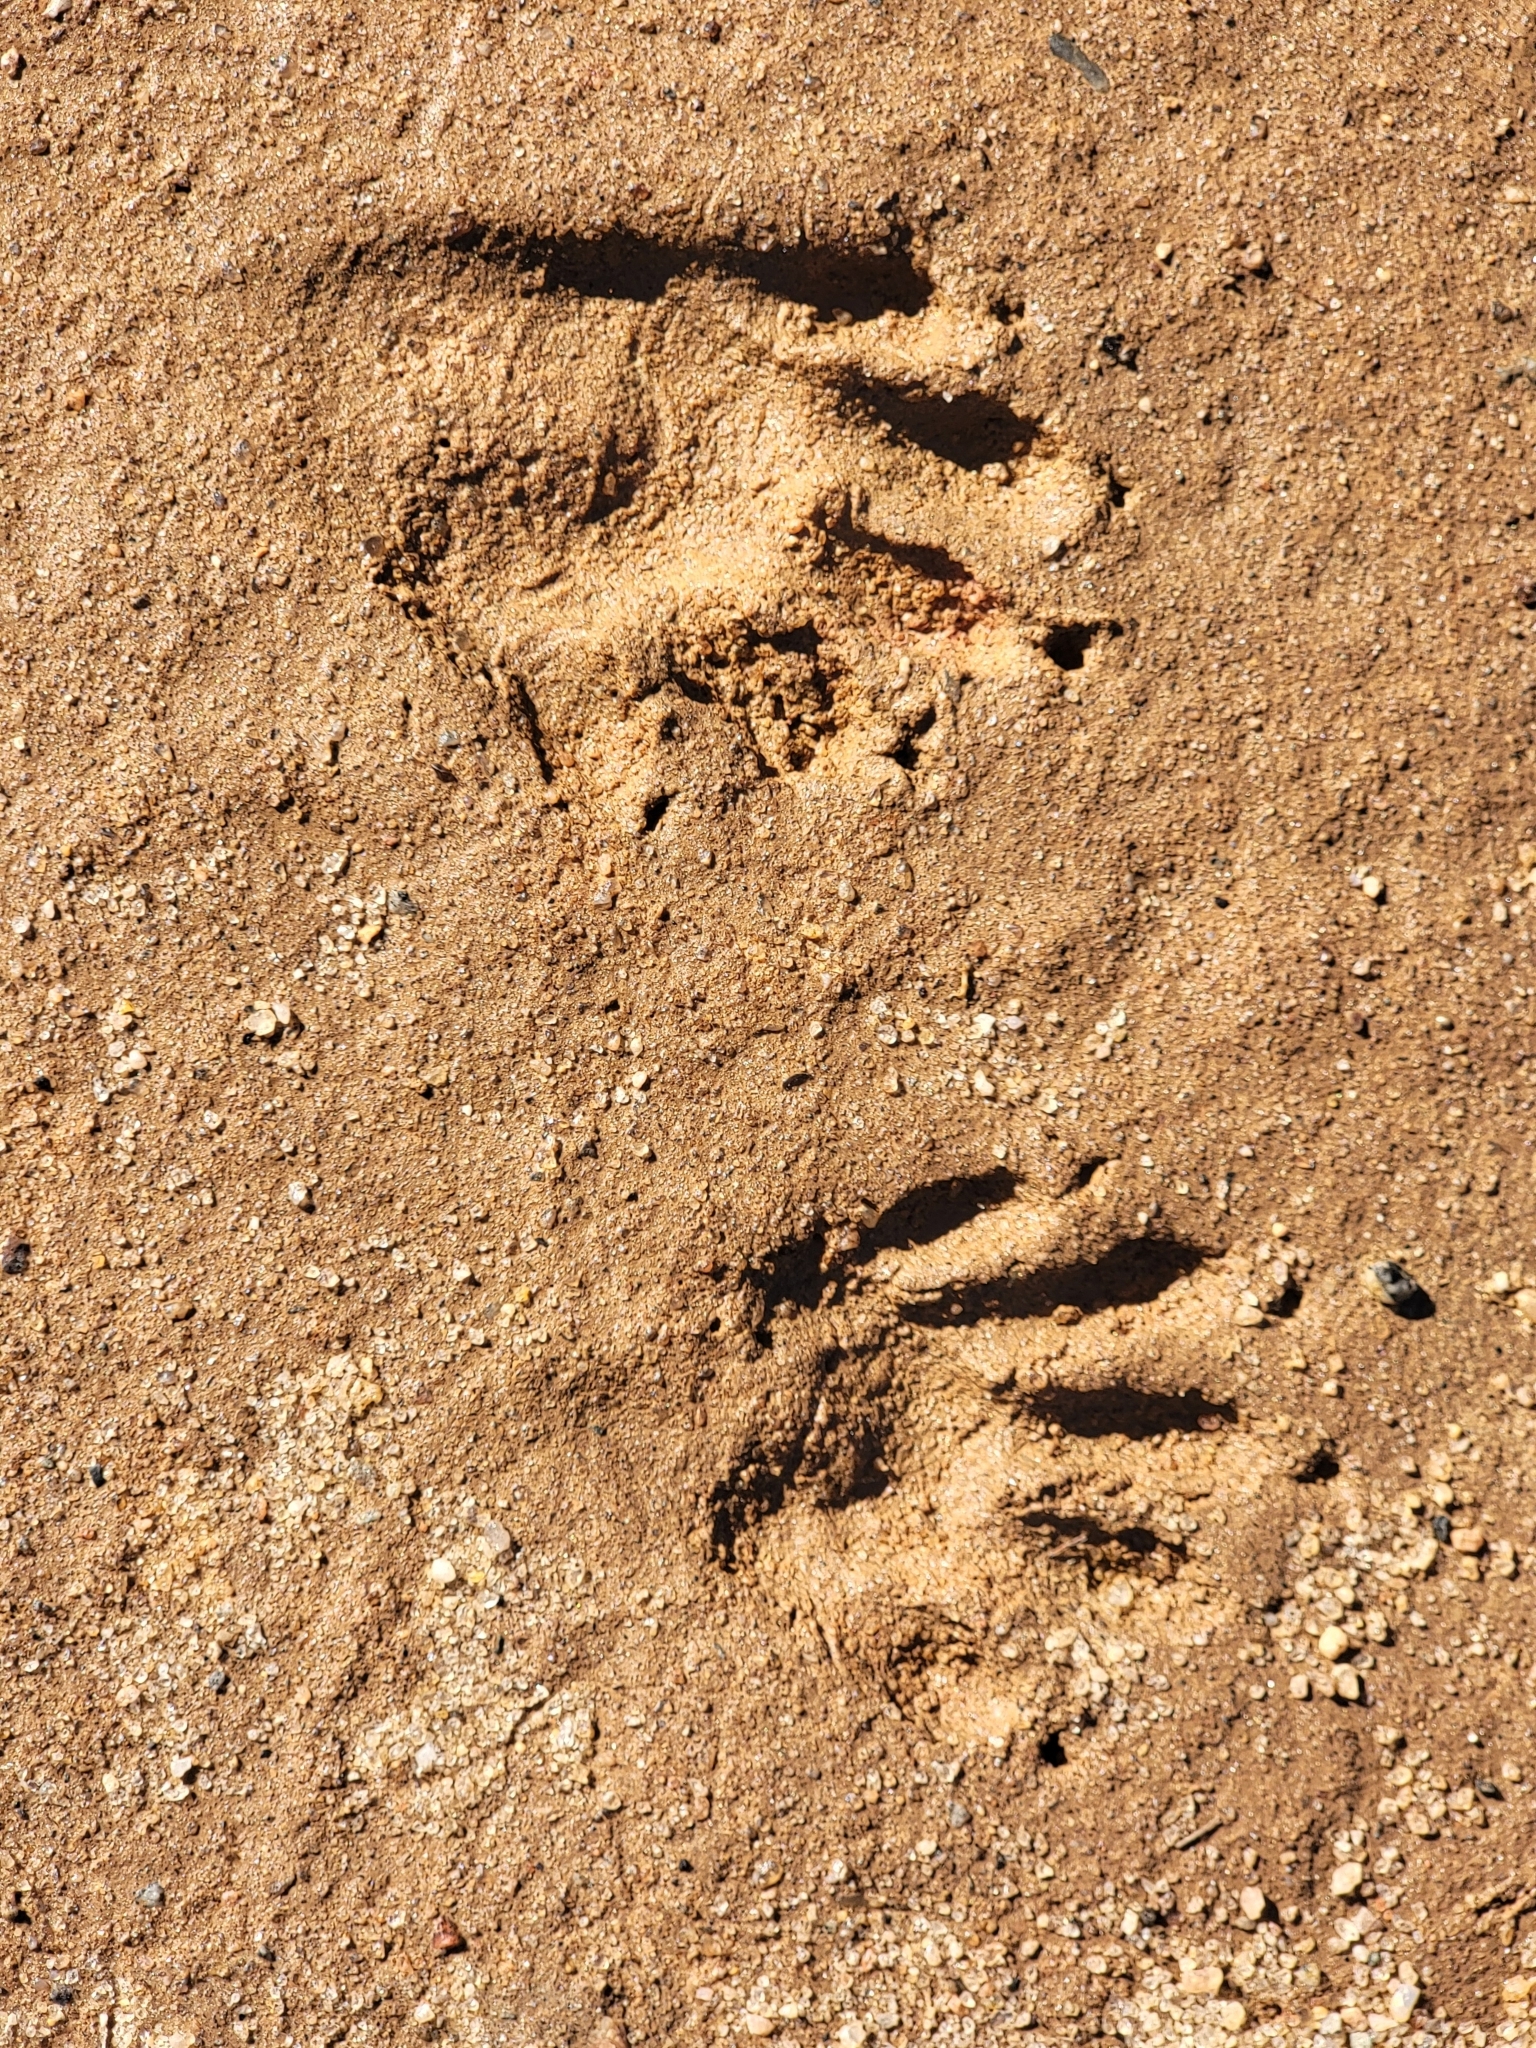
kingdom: Animalia
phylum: Chordata
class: Mammalia
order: Carnivora
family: Procyonidae
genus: Procyon
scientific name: Procyon lotor
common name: Raccoon
